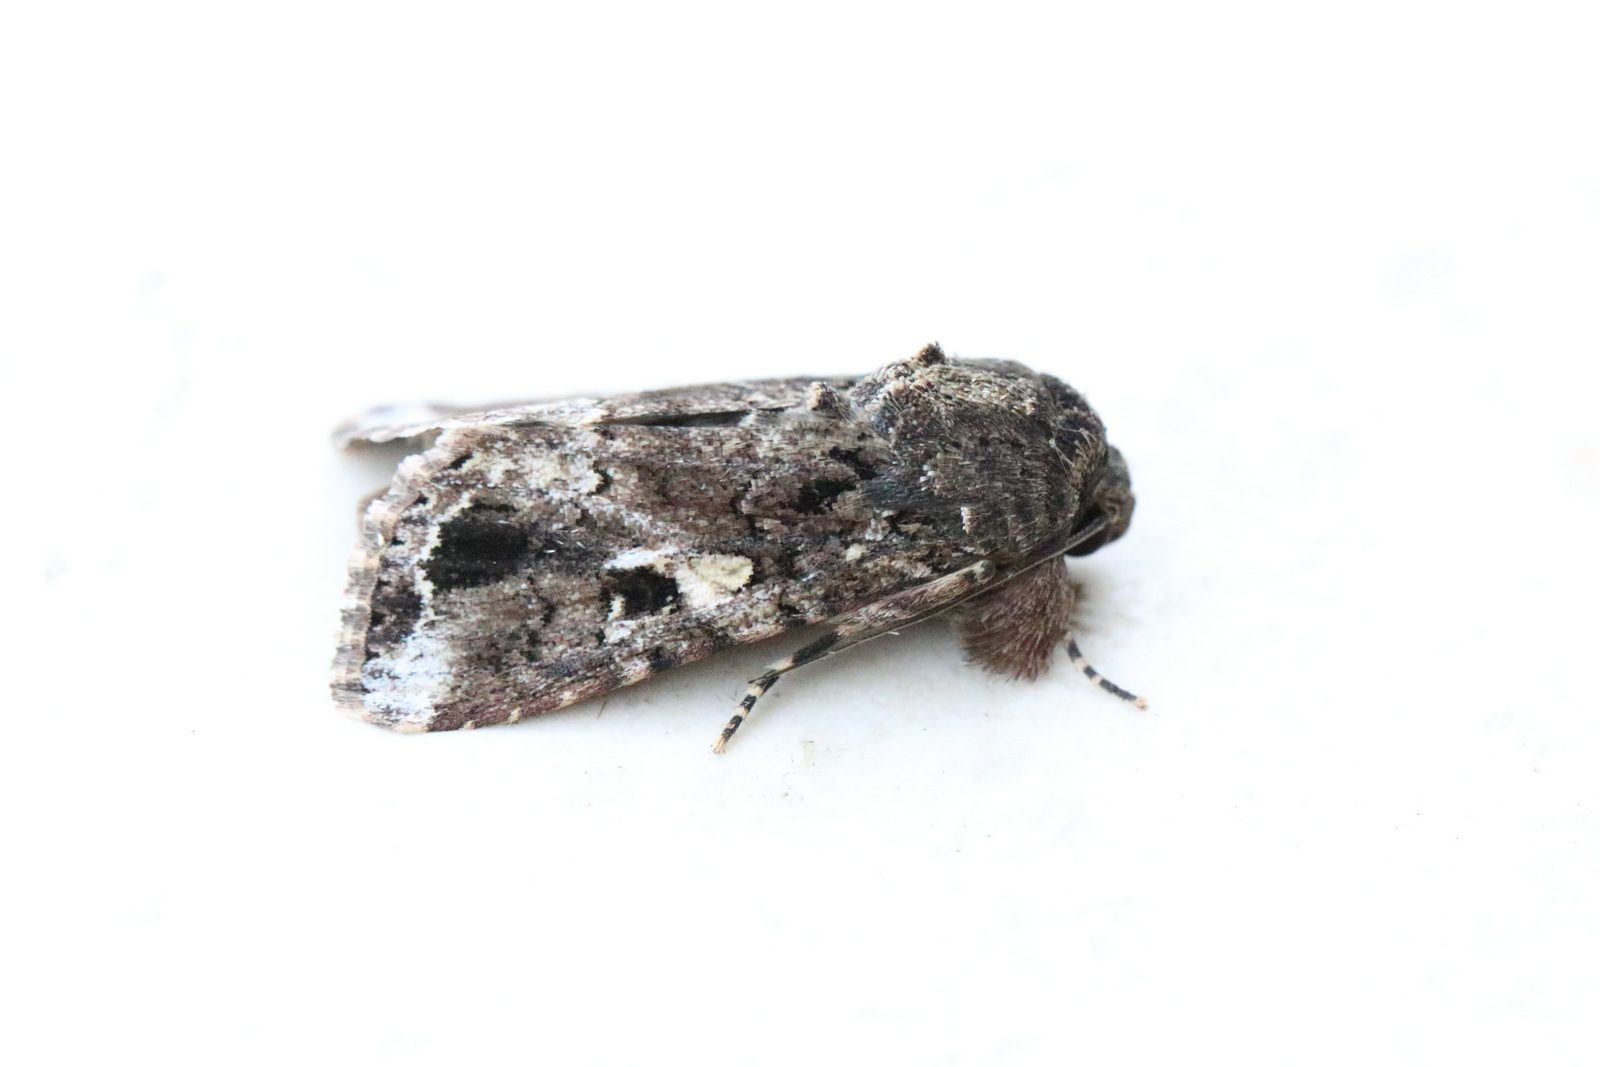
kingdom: Animalia
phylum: Arthropoda
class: Insecta
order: Lepidoptera
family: Noctuidae
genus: Spodoptera
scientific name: Spodoptera mauritia
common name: Lawn armyworm
